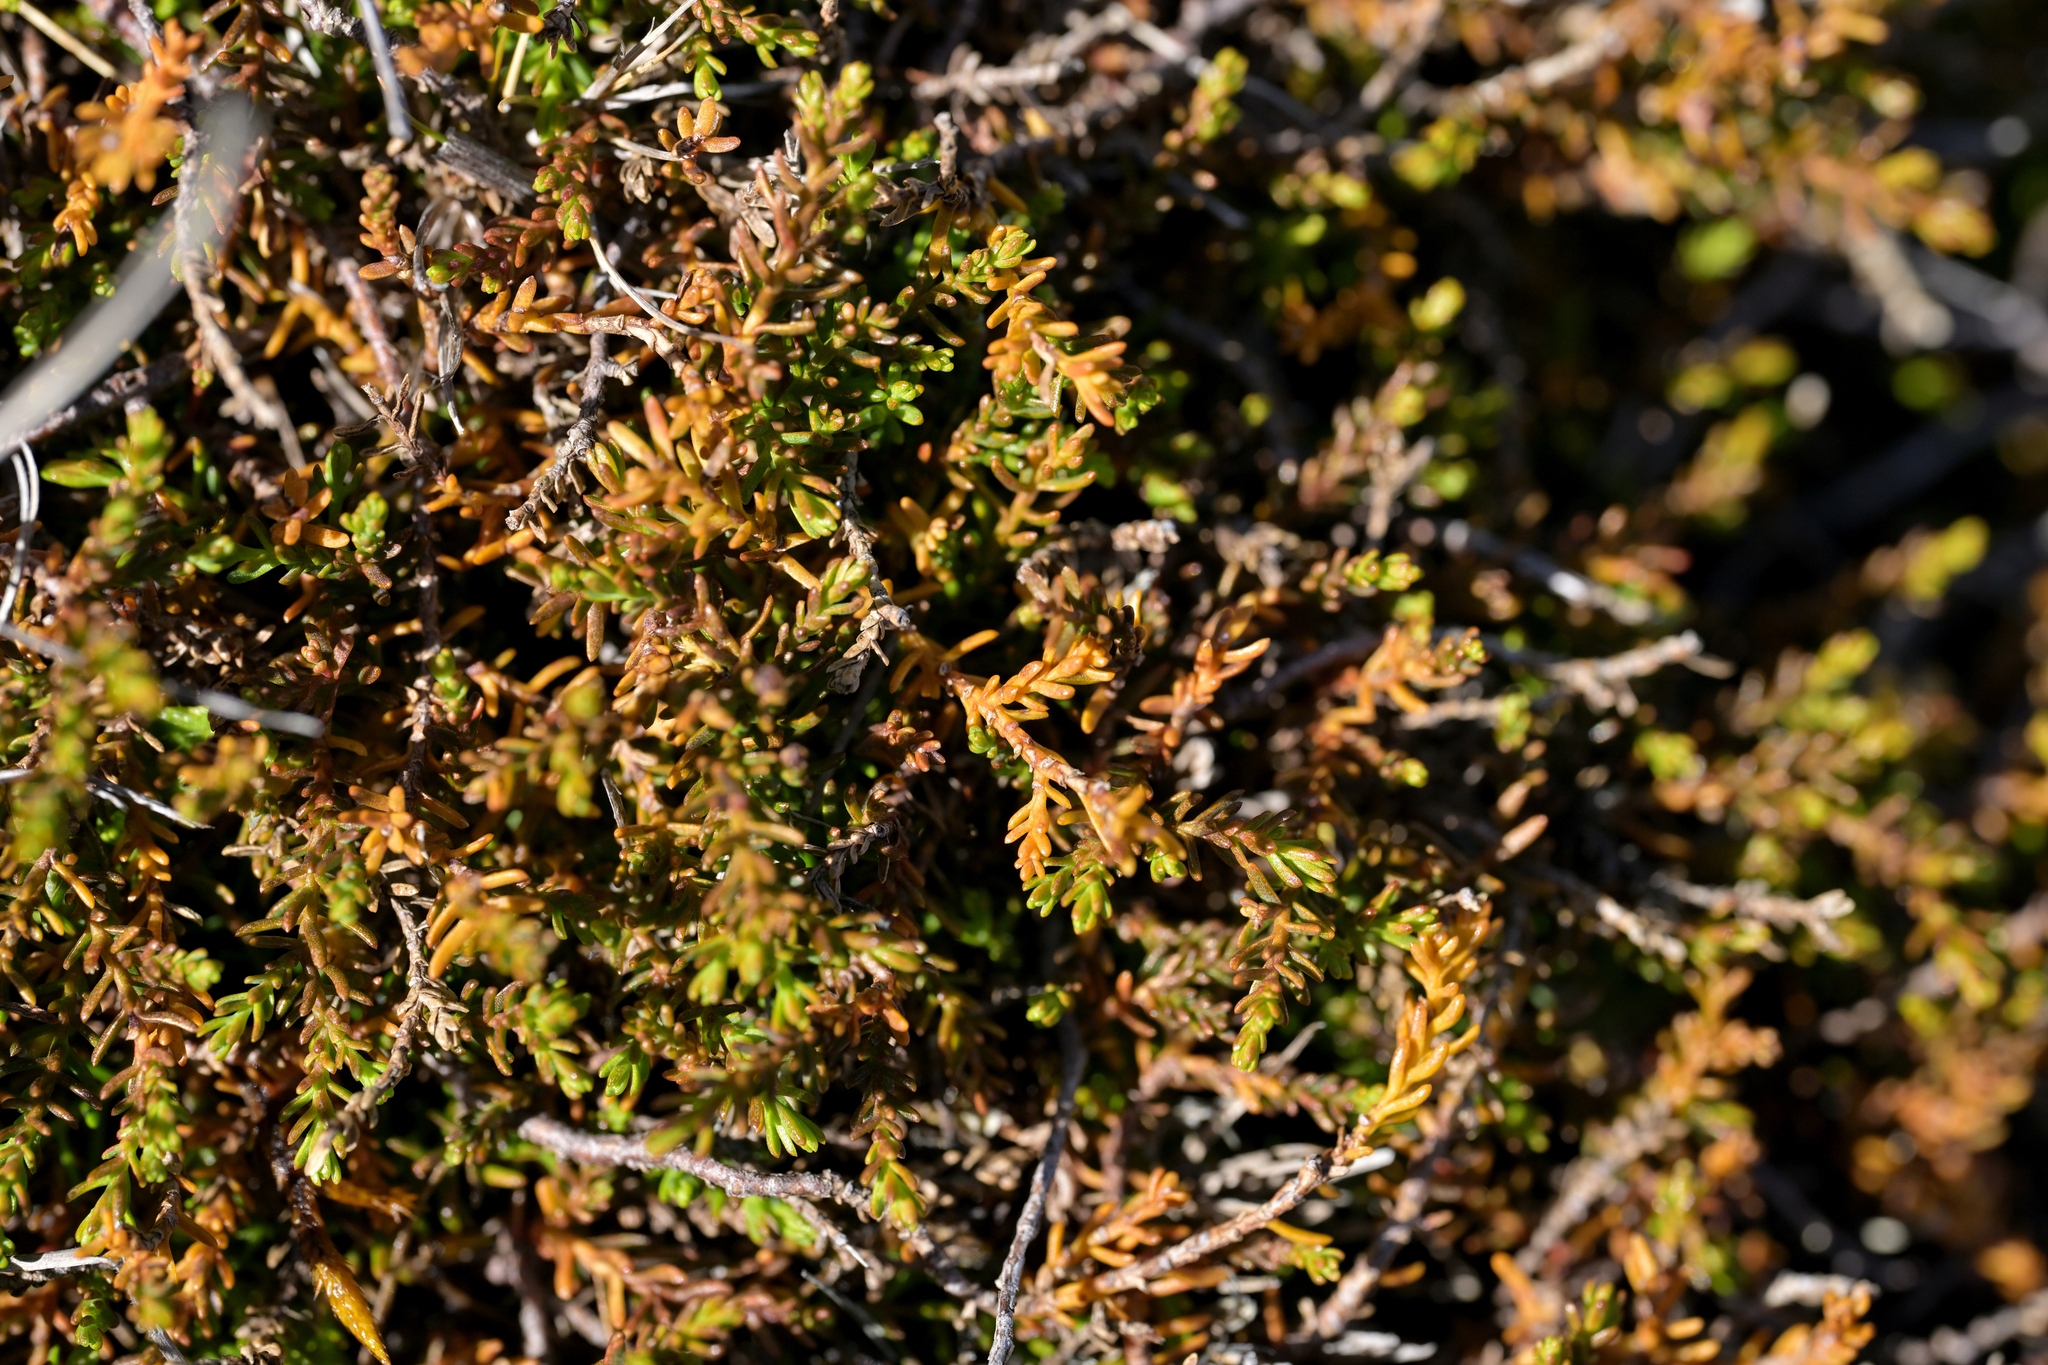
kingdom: Plantae
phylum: Tracheophyta
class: Pinopsida
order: Pinales
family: Podocarpaceae
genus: Lepidothamnus
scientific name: Lepidothamnus laxifolius
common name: Pygmy pine
